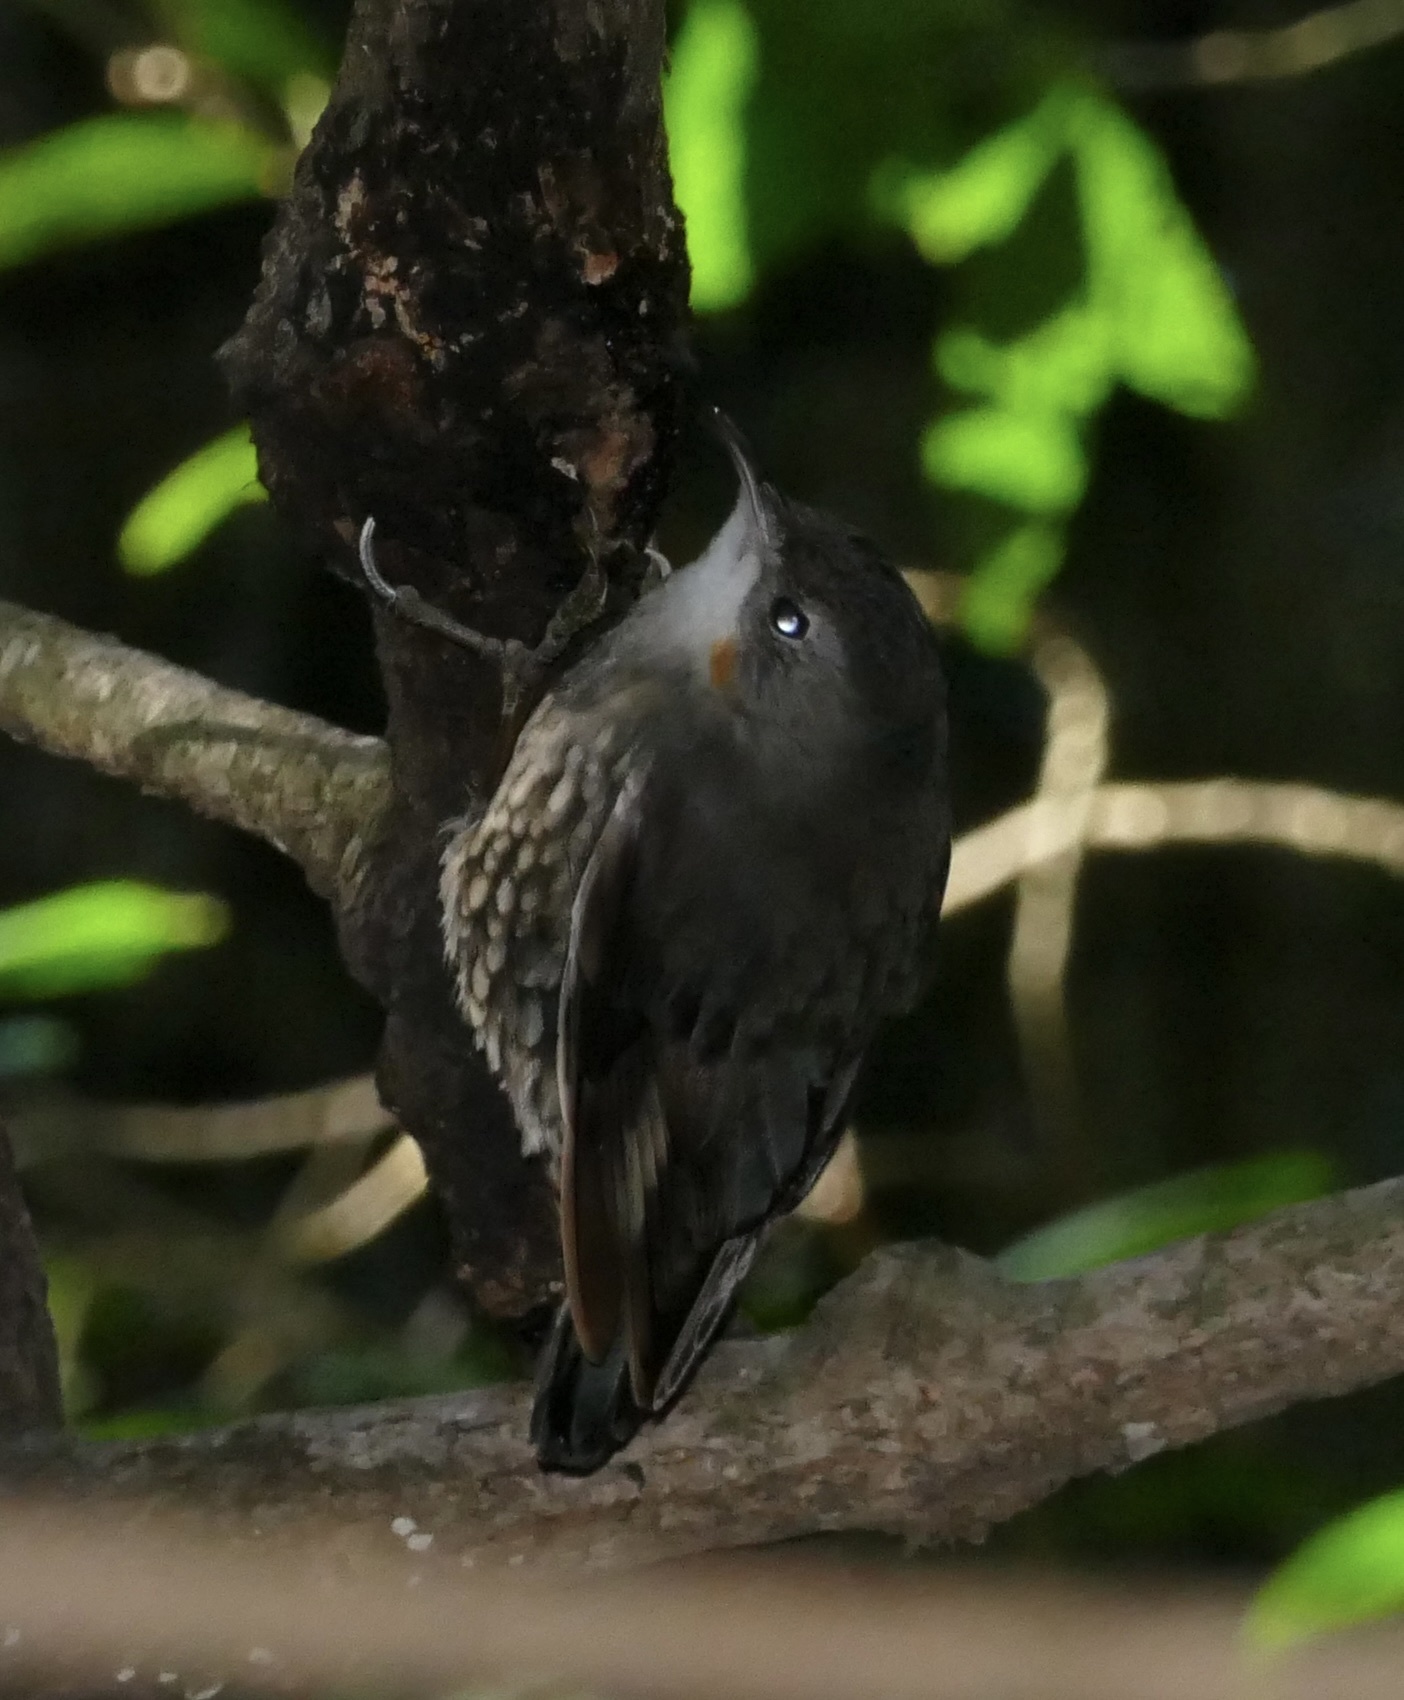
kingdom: Animalia
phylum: Chordata
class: Aves
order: Passeriformes
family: Climacteridae
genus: Cormobates
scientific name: Cormobates leucophaea
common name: White-throated treecreeper
